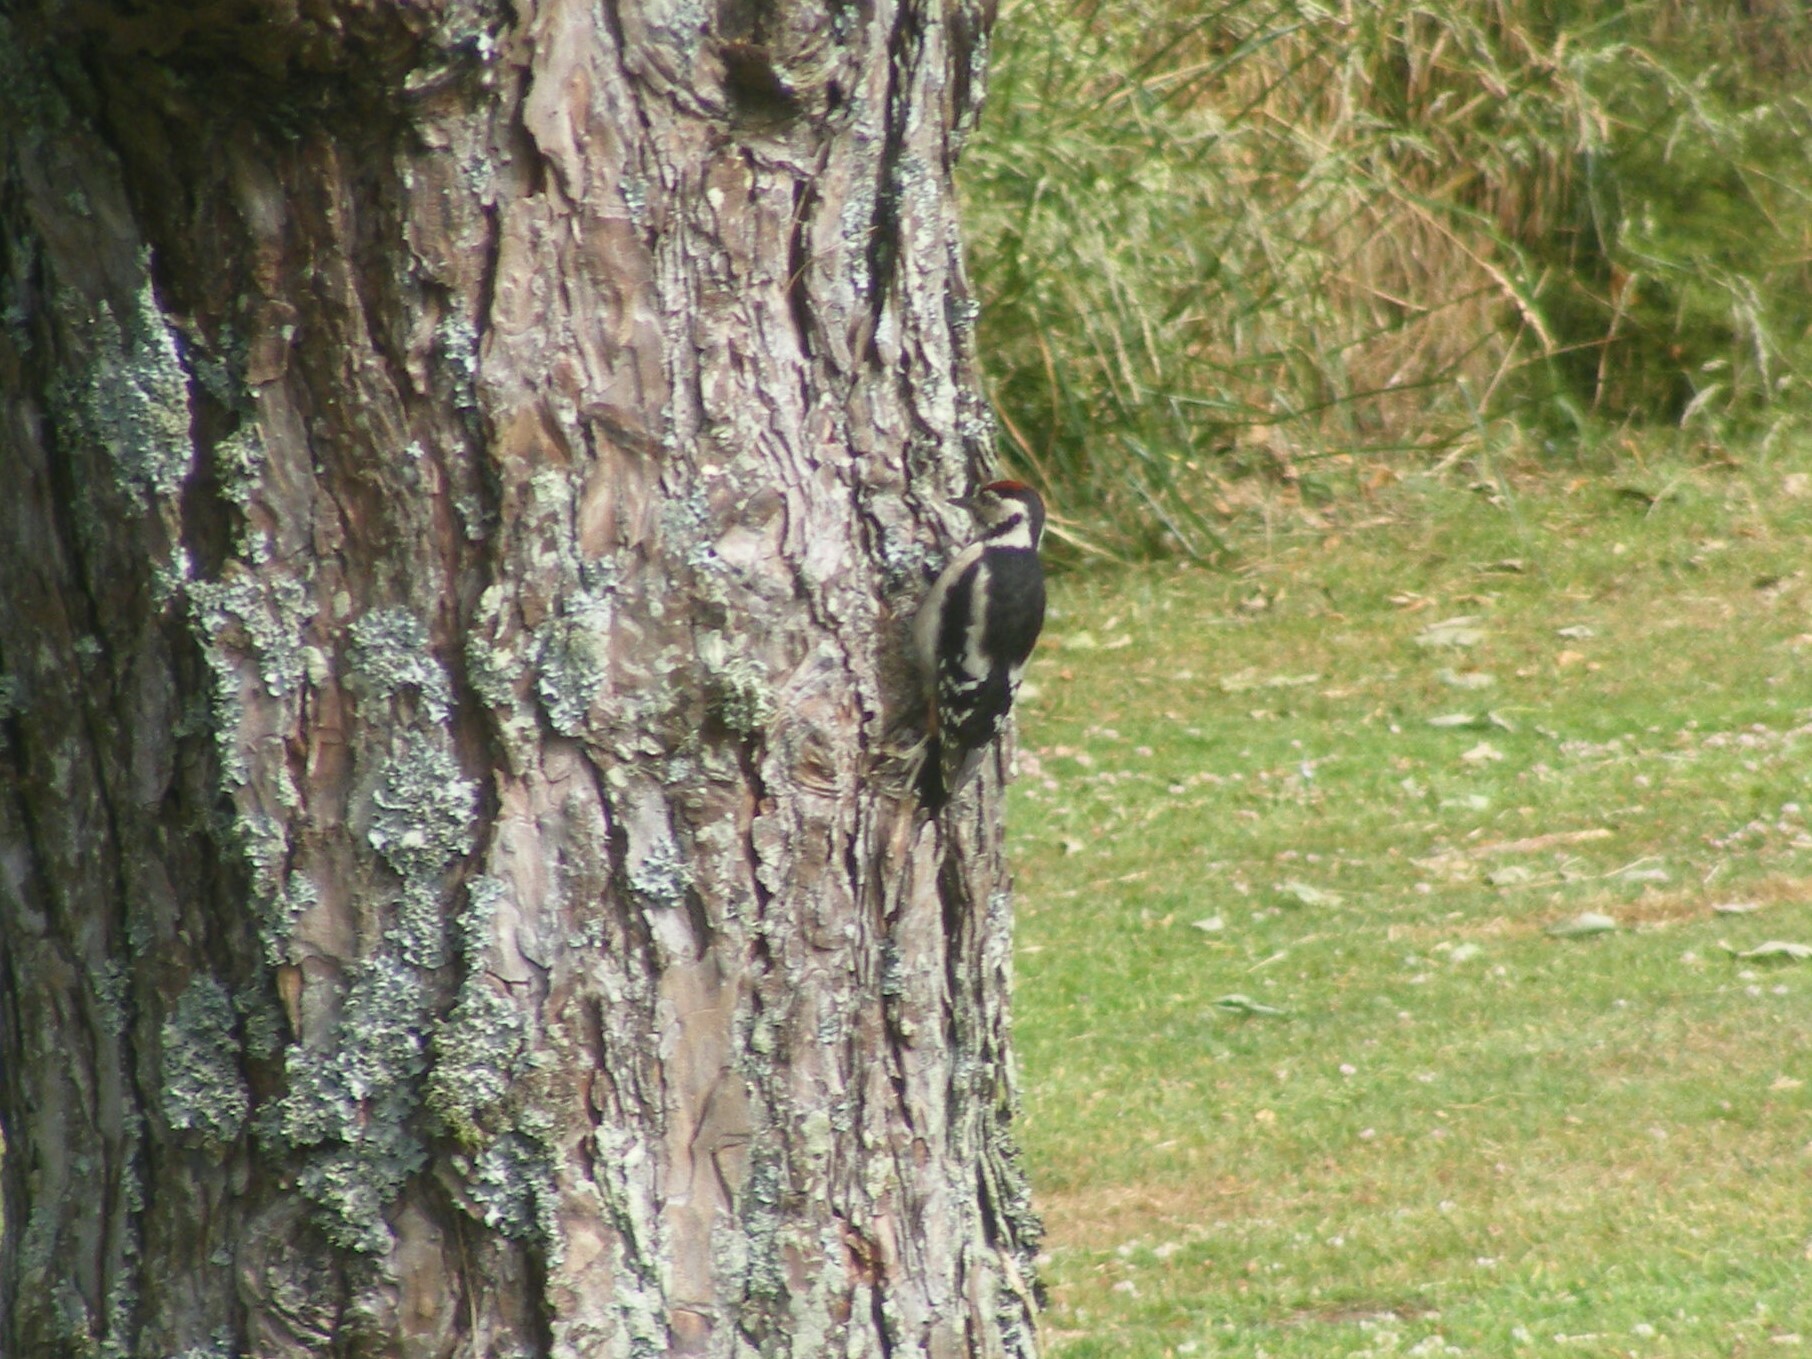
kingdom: Animalia
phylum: Chordata
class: Aves
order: Piciformes
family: Picidae
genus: Dendrocopos
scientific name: Dendrocopos major
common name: Great spotted woodpecker
